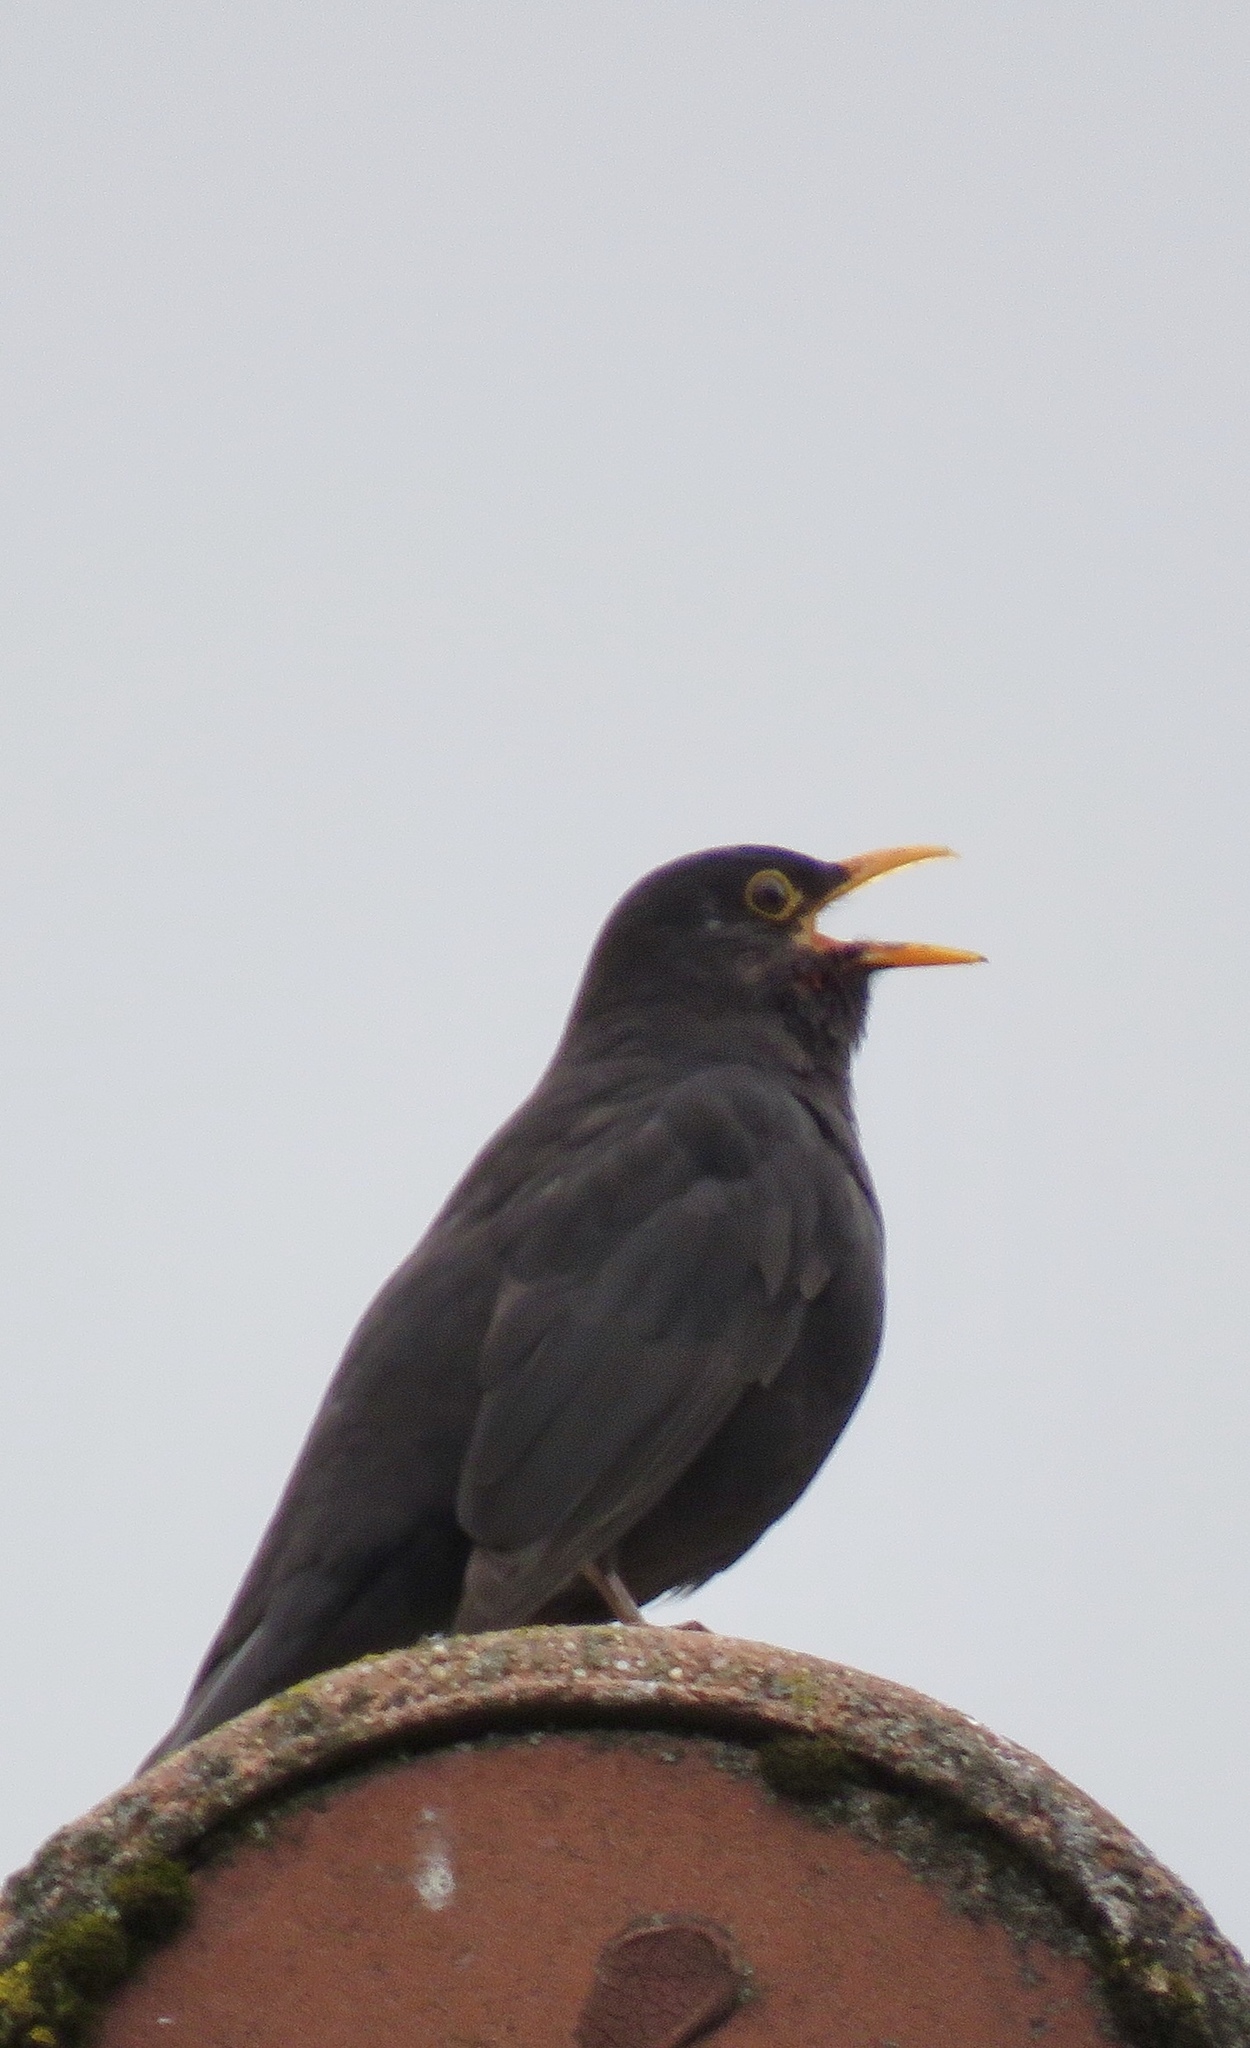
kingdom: Animalia
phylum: Chordata
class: Aves
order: Passeriformes
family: Turdidae
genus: Turdus
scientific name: Turdus merula
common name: Common blackbird
